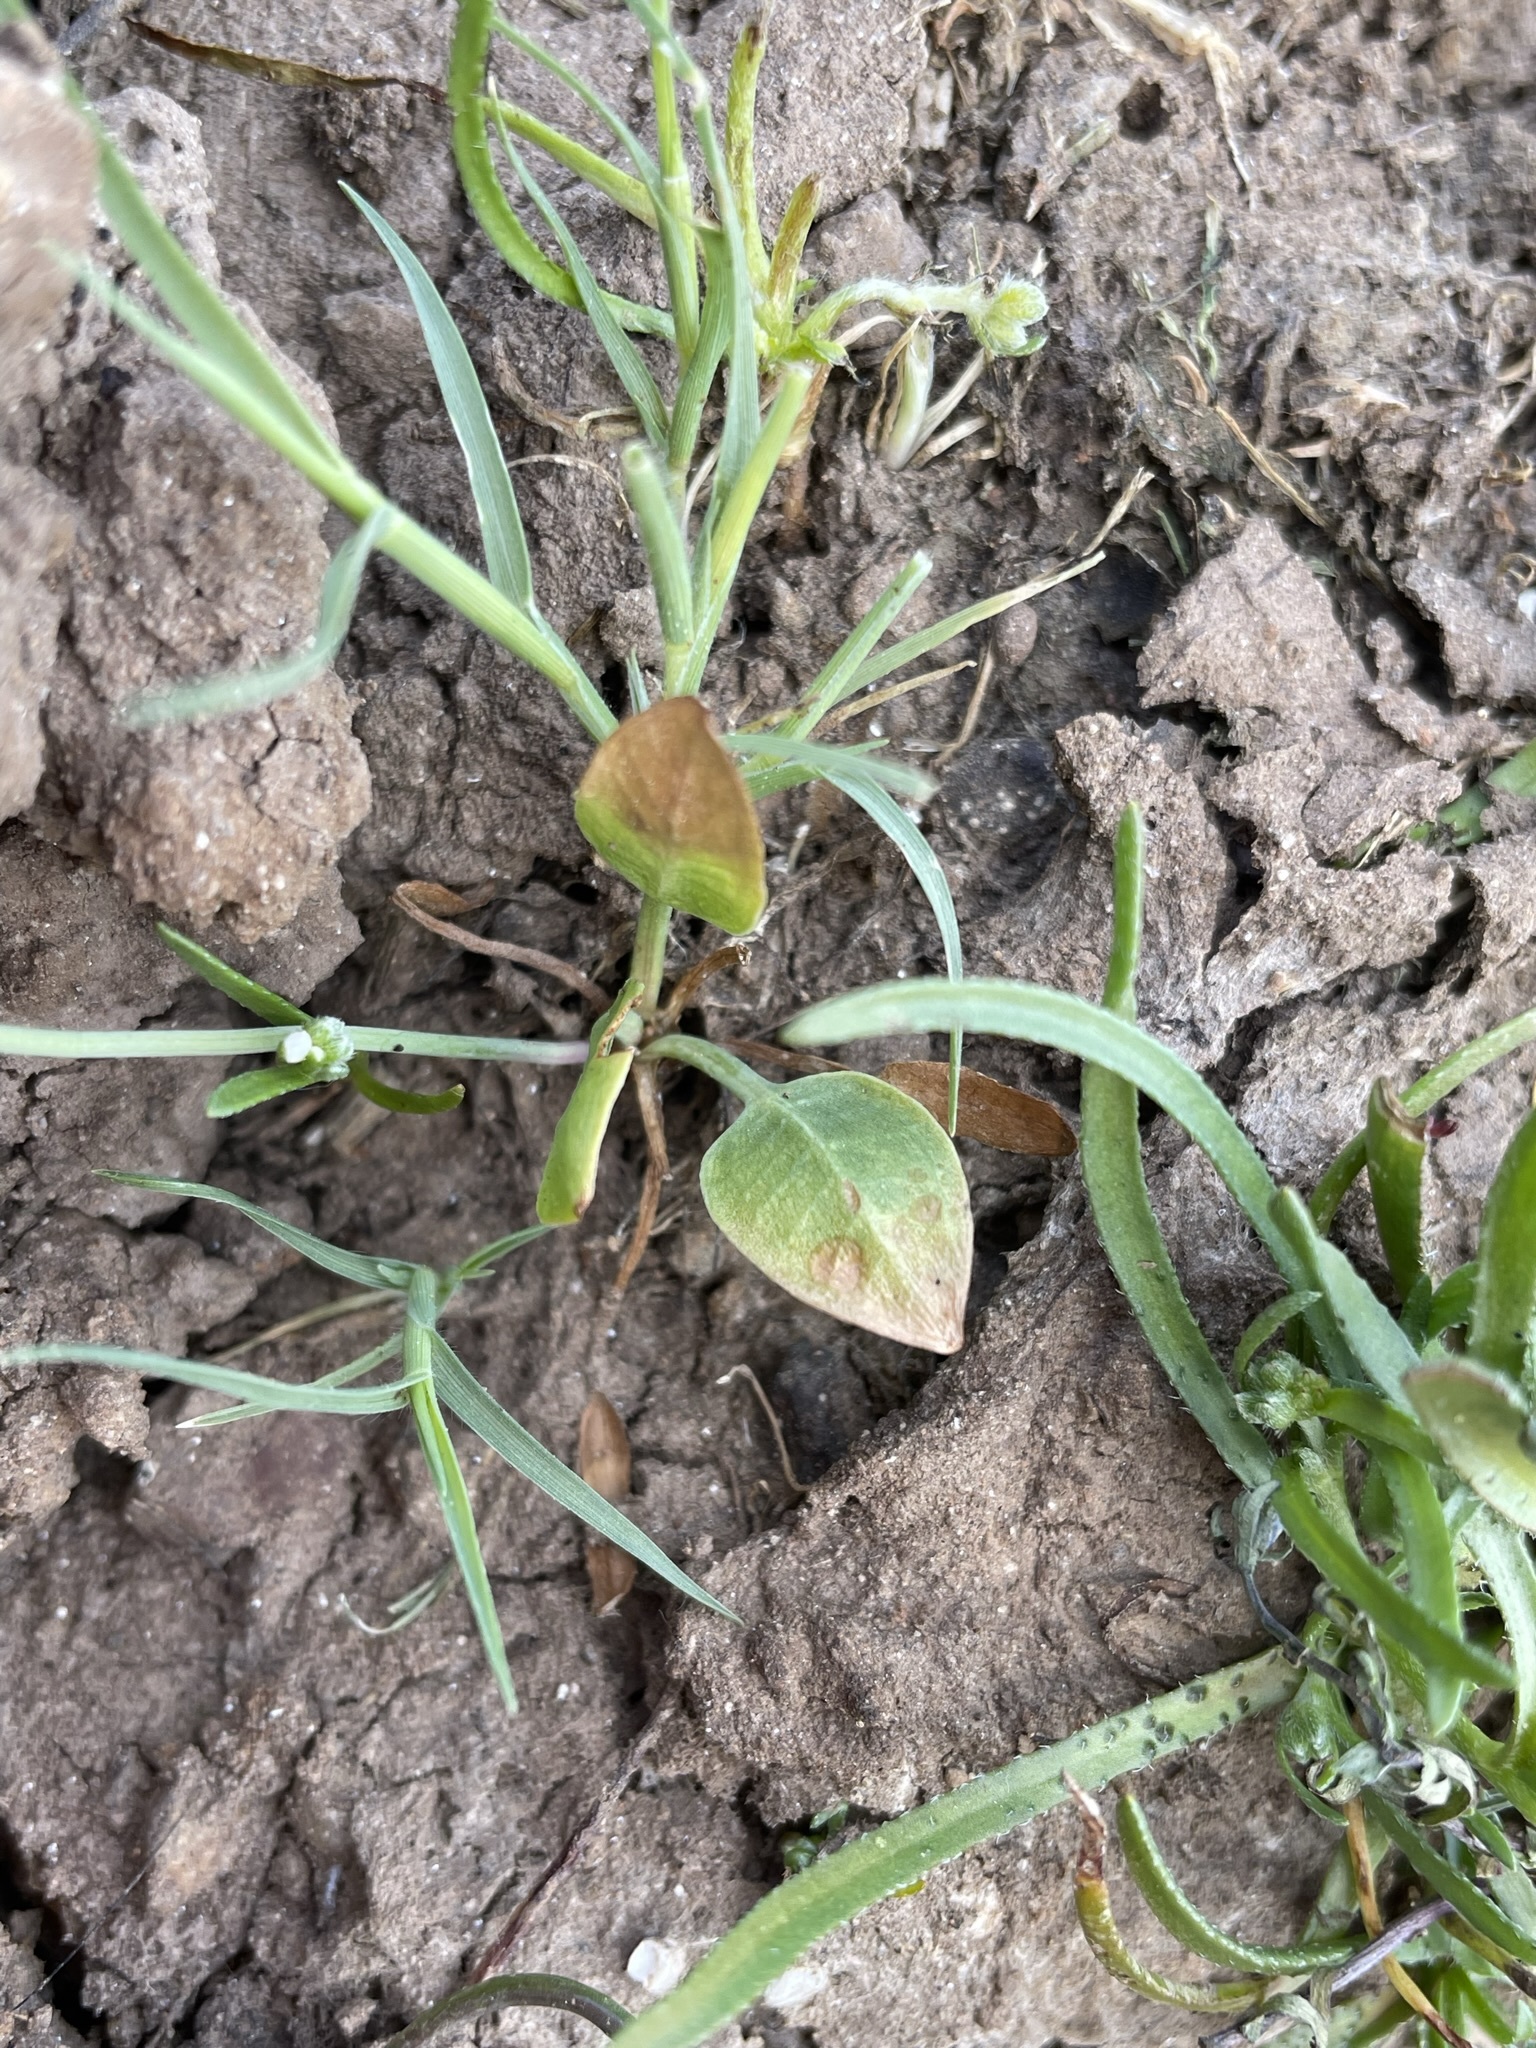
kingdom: Plantae
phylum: Tracheophyta
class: Liliopsida
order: Alismatales
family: Alismataceae
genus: Damasonium
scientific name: Damasonium californicum
